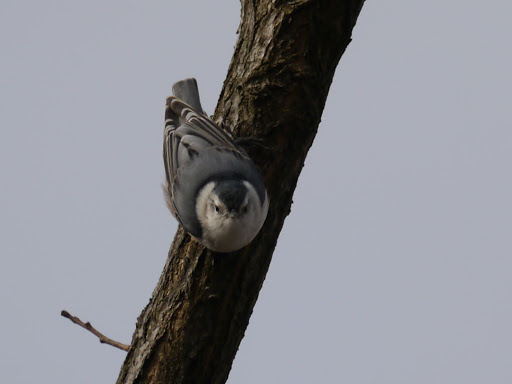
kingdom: Animalia
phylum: Chordata
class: Aves
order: Passeriformes
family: Sittidae
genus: Sitta
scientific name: Sitta carolinensis
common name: White-breasted nuthatch
